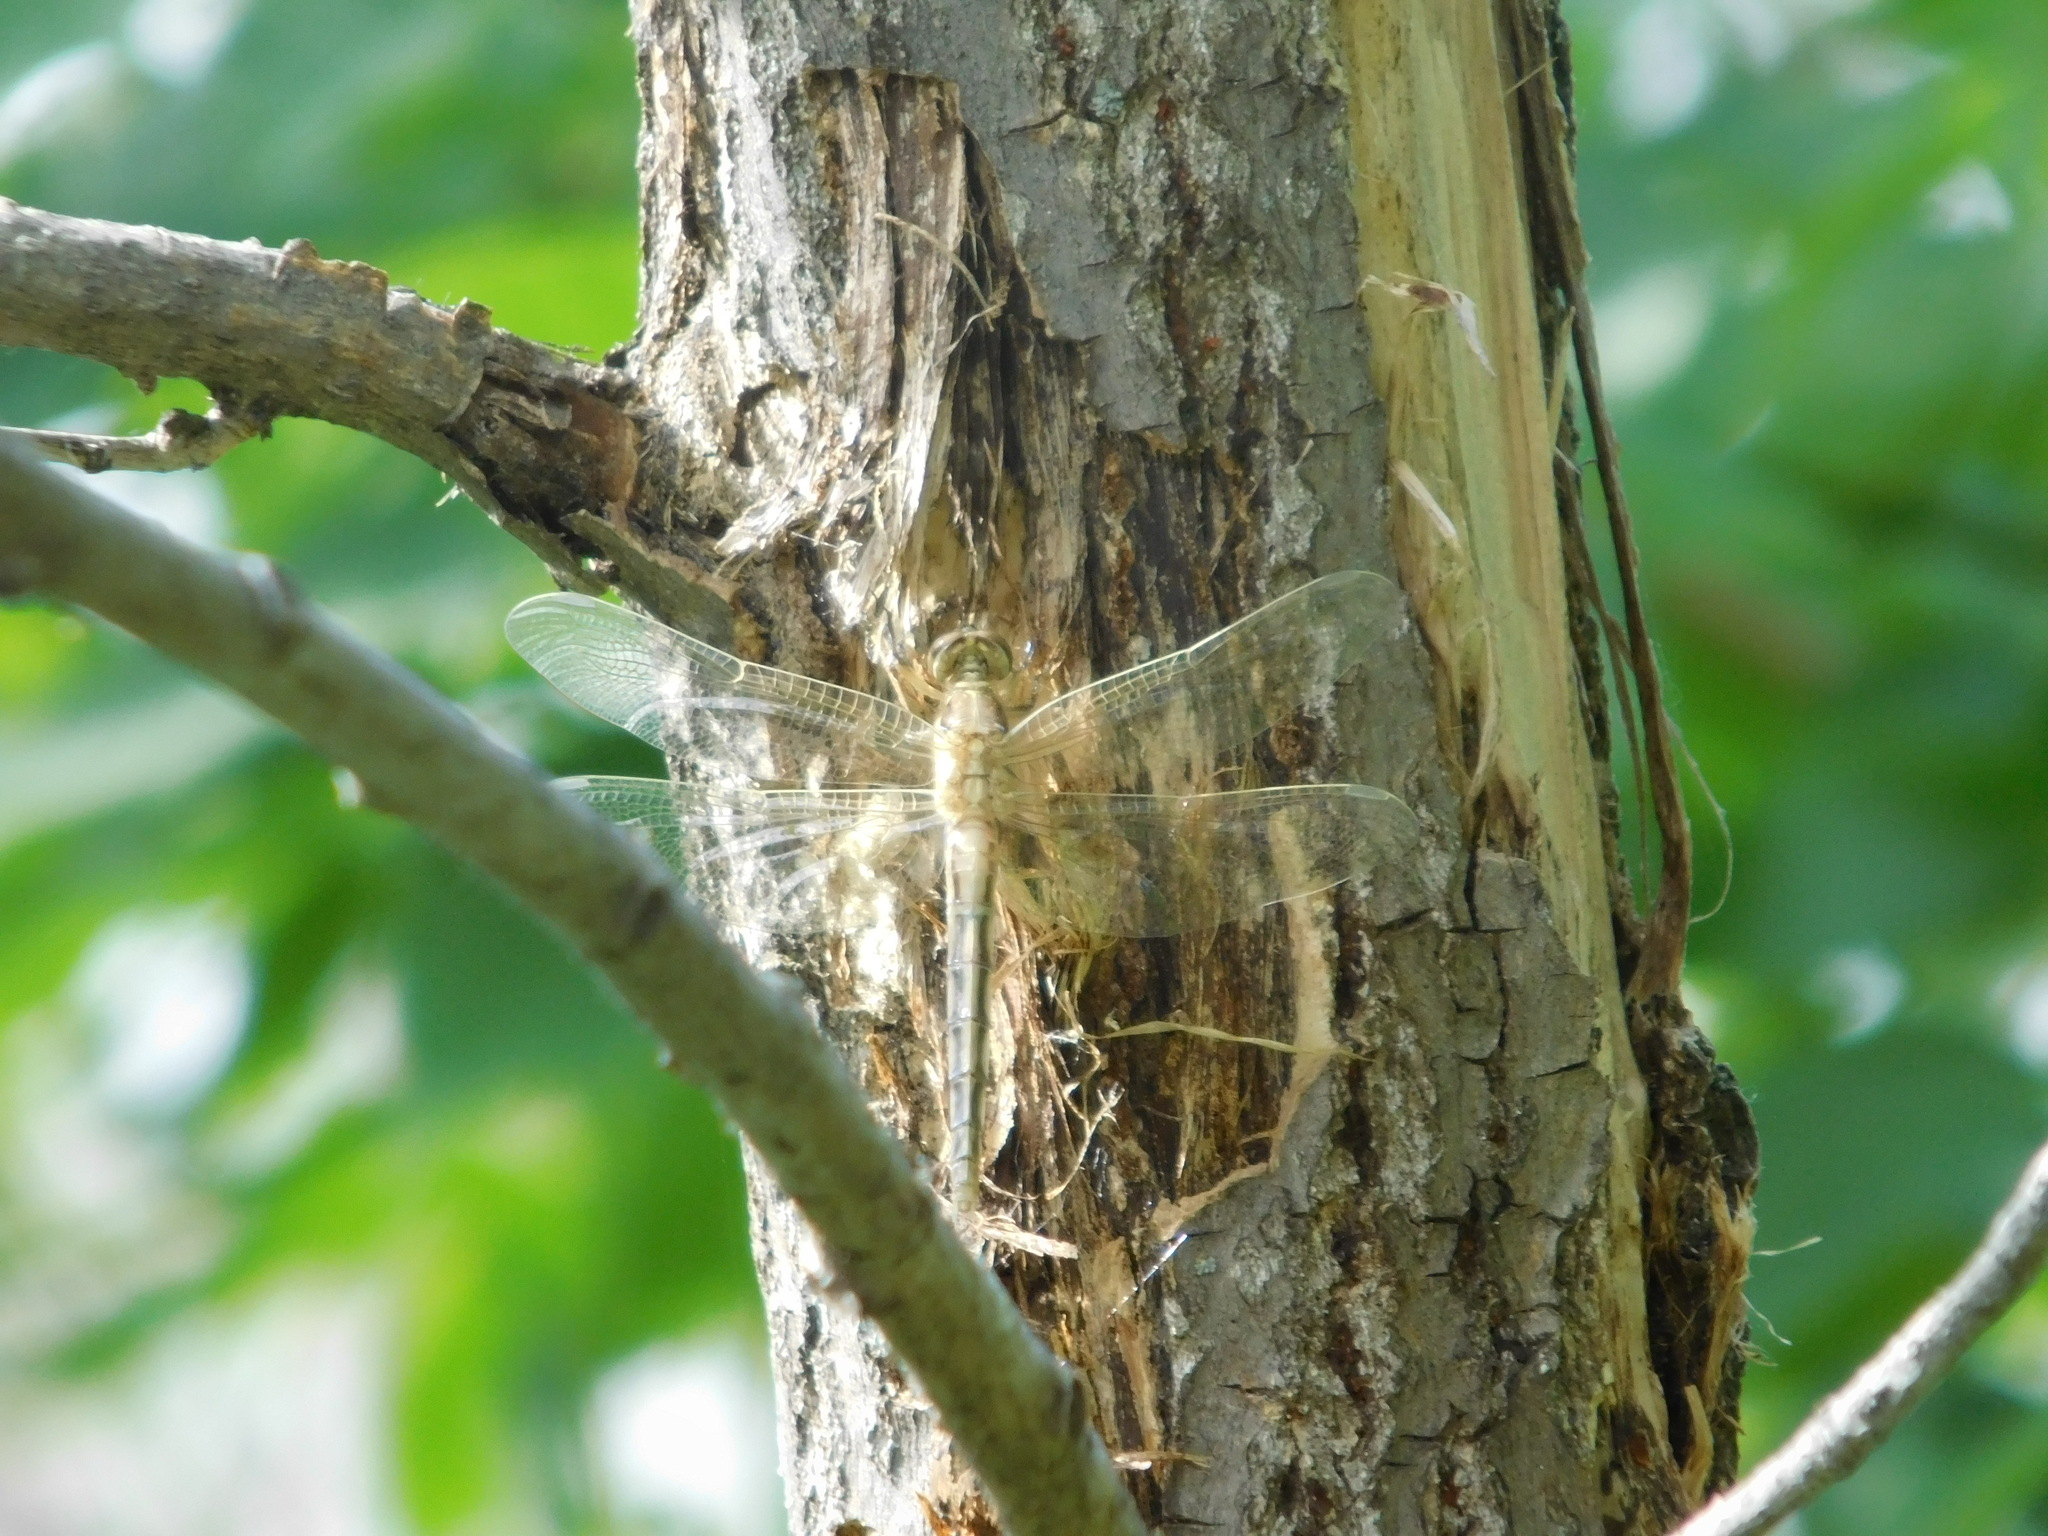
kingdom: Animalia
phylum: Arthropoda
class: Insecta
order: Odonata
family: Libellulidae
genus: Orthetrum
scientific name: Orthetrum albistylum
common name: White-tailed skimmer
